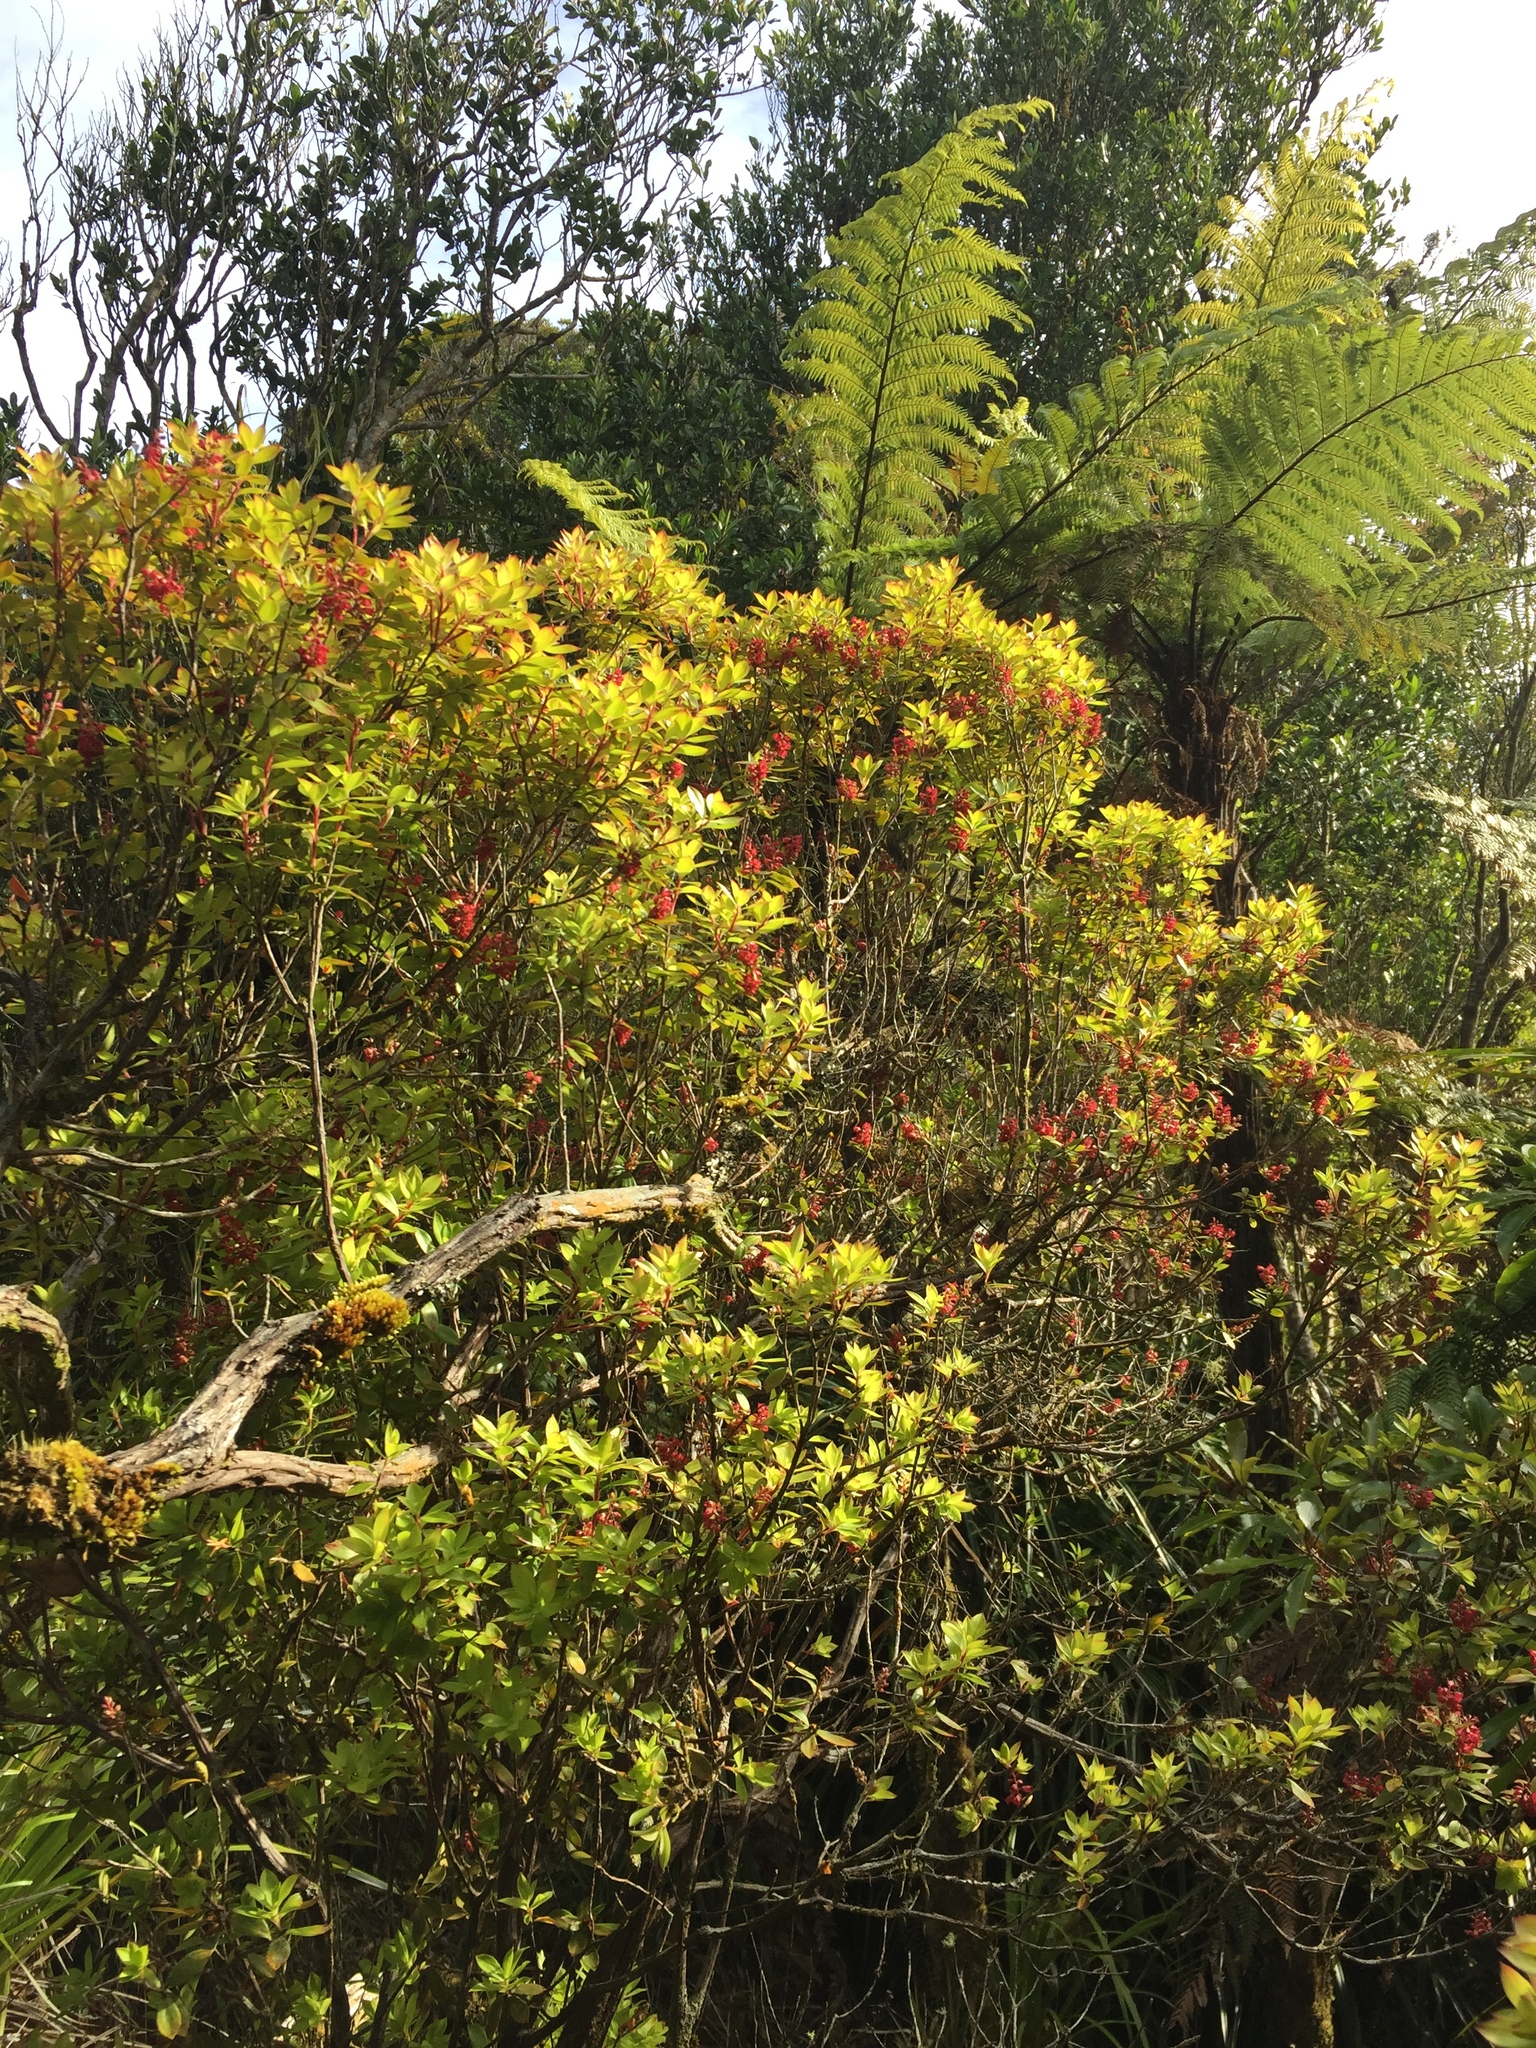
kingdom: Plantae
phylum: Tracheophyta
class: Magnoliopsida
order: Ericales
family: Ericaceae
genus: Archeria
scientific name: Archeria racemosa
